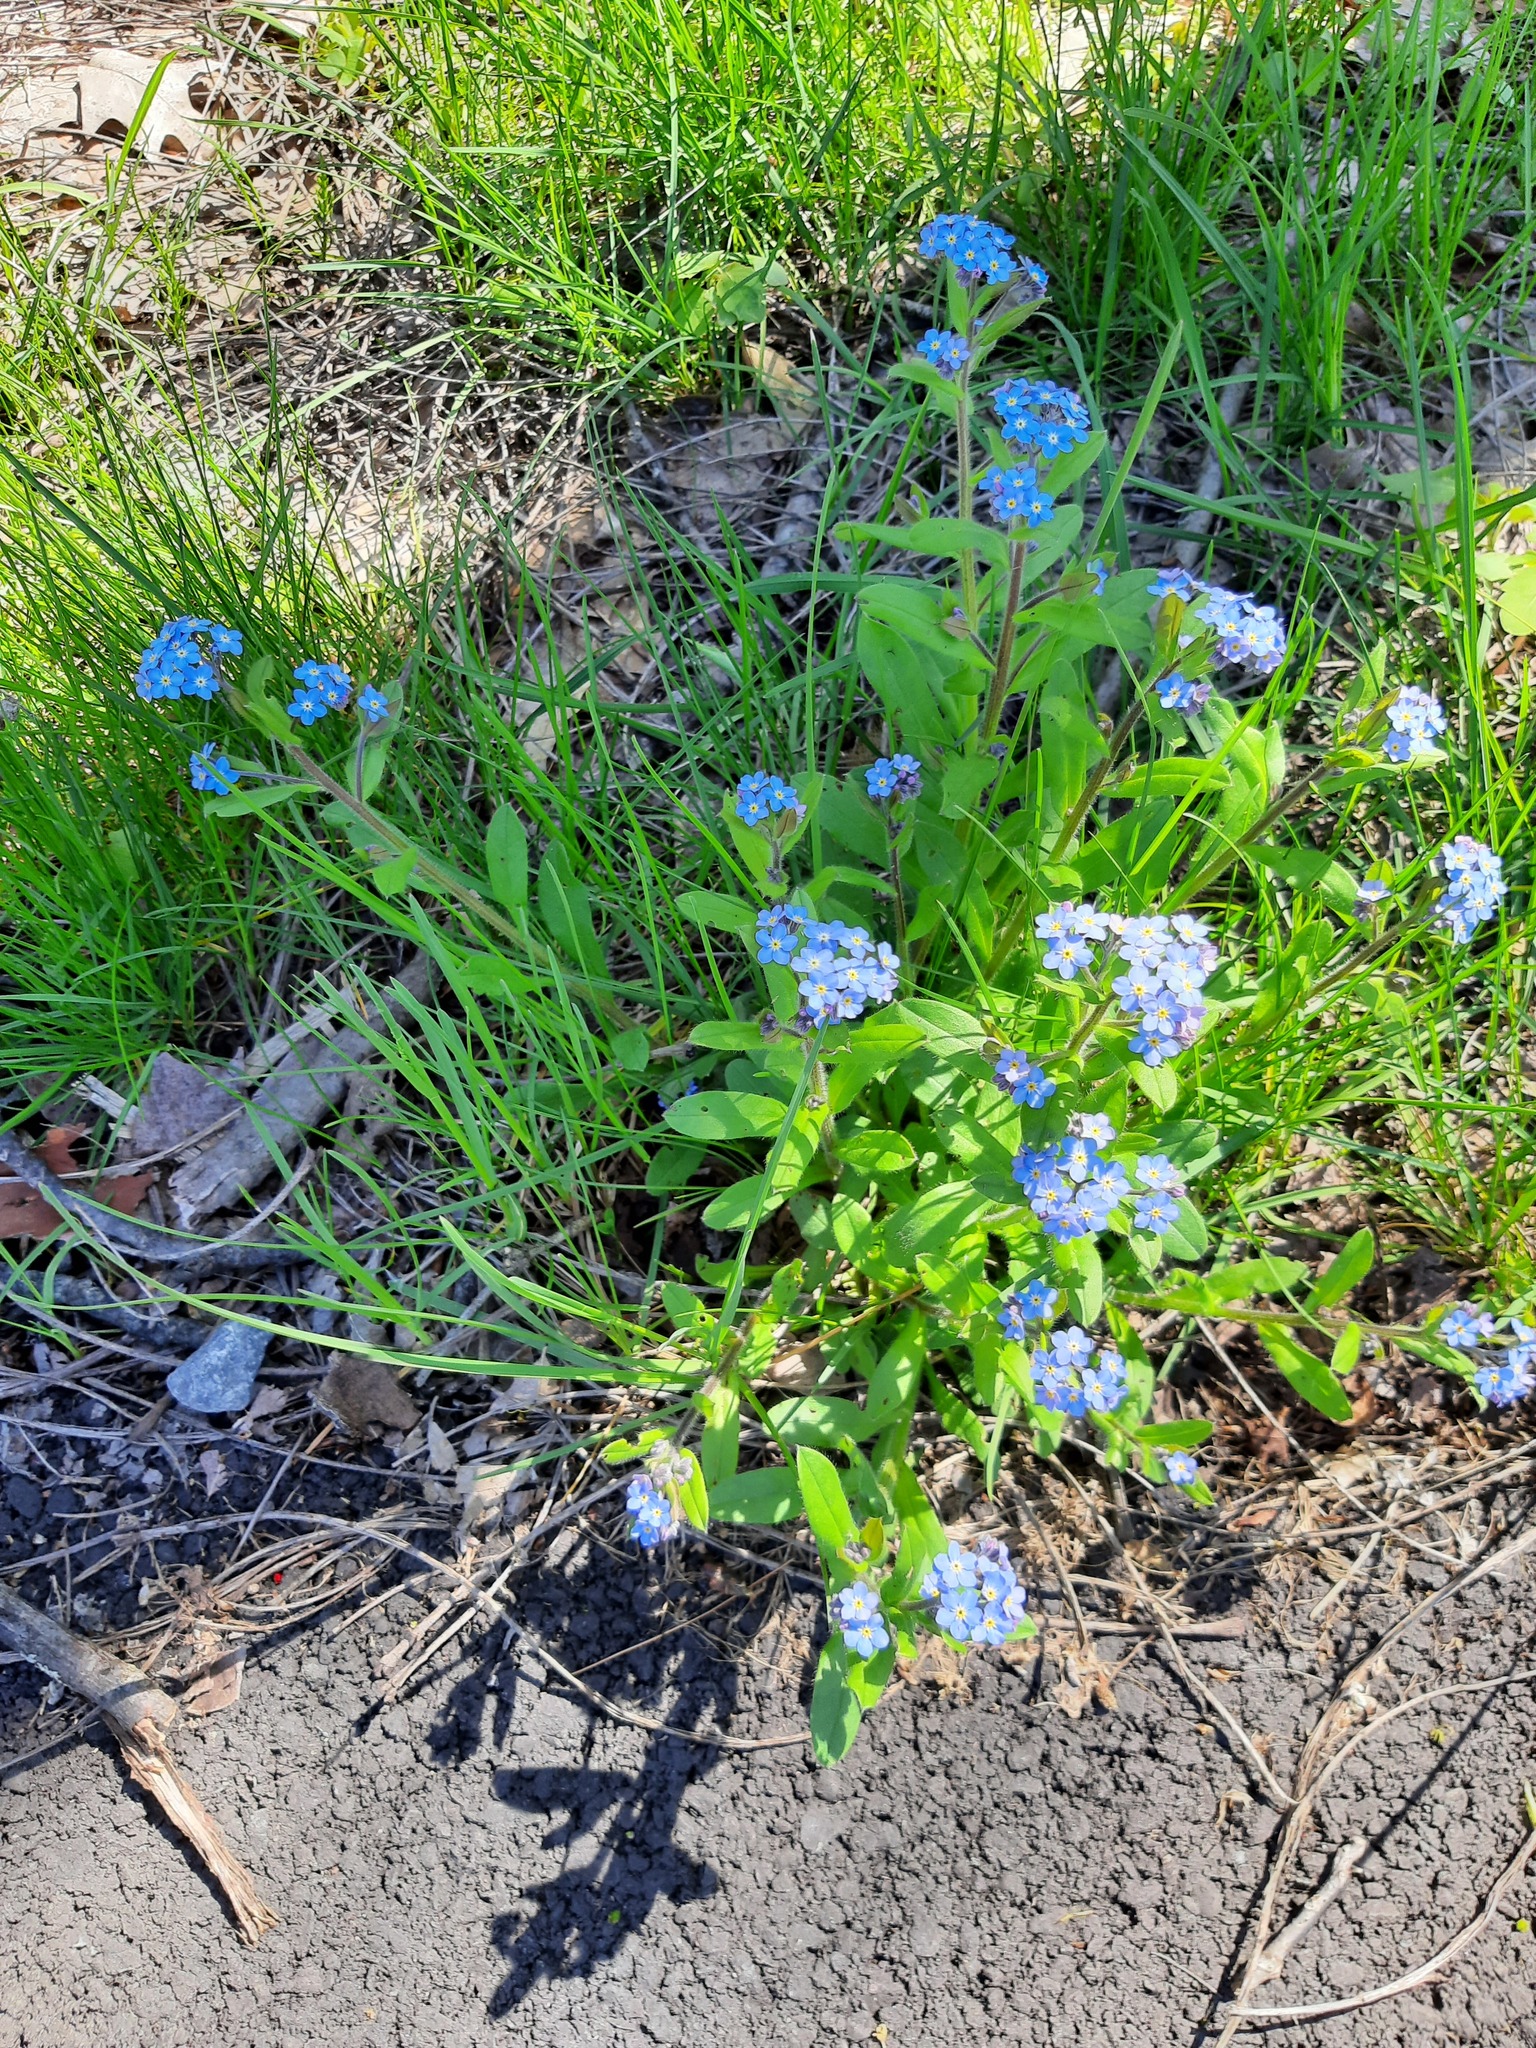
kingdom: Plantae
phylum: Tracheophyta
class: Magnoliopsida
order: Boraginales
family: Boraginaceae
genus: Myosotis
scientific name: Myosotis scorpioides
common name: Water forget-me-not
